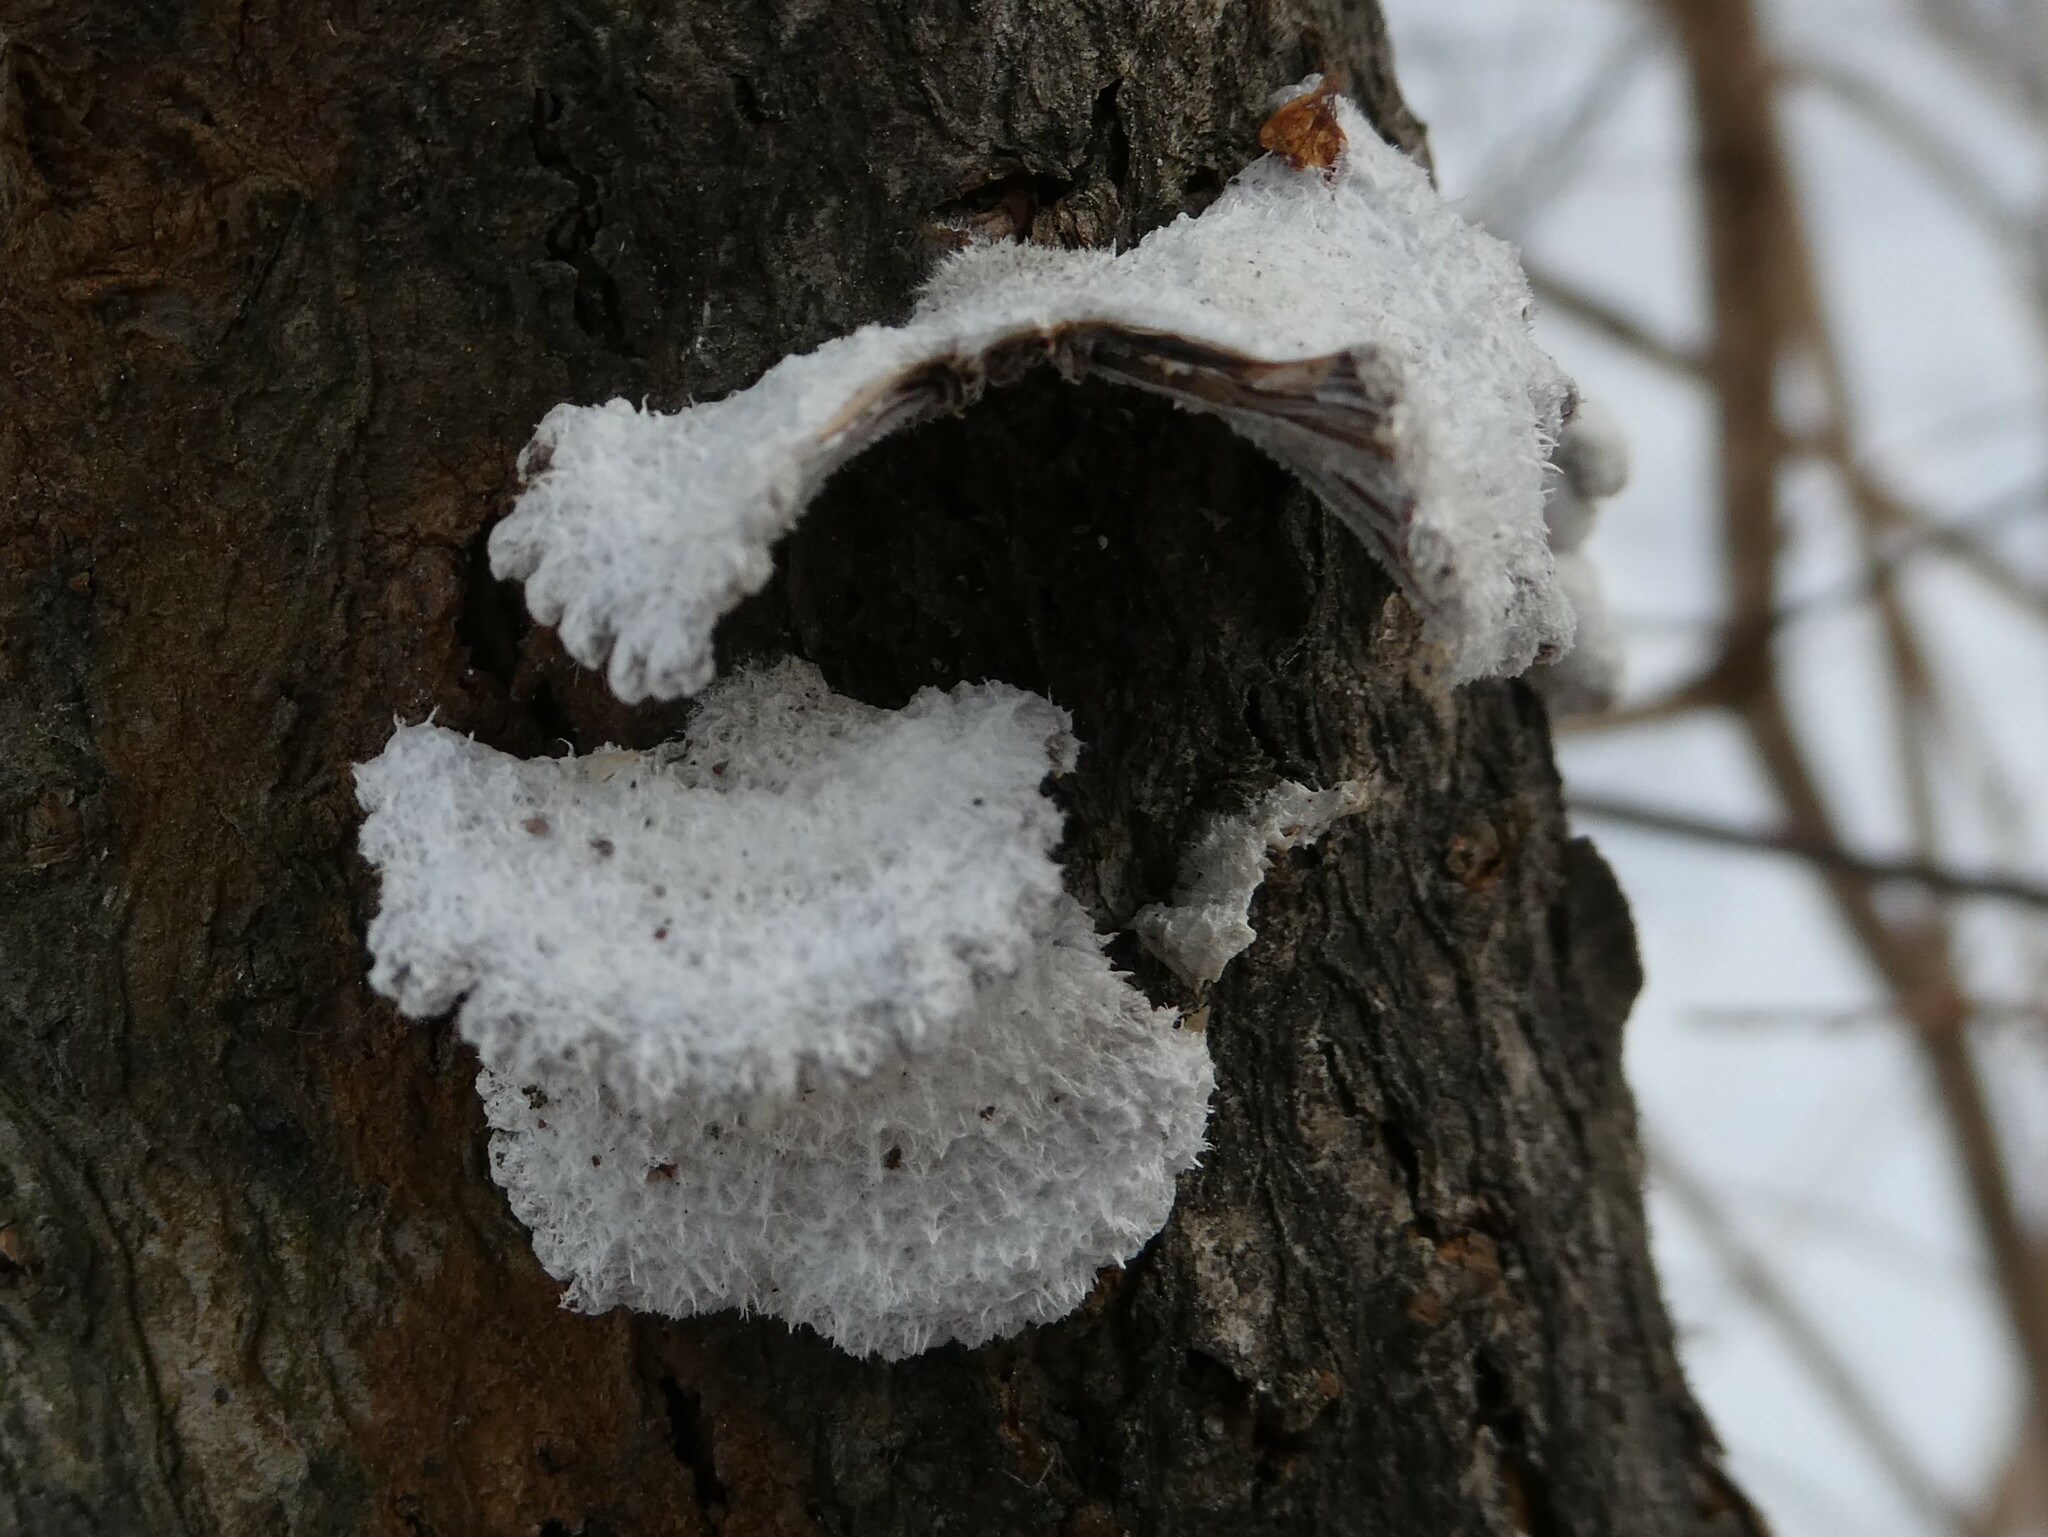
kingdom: Fungi
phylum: Basidiomycota
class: Agaricomycetes
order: Agaricales
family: Schizophyllaceae
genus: Schizophyllum
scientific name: Schizophyllum commune
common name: Common porecrust
